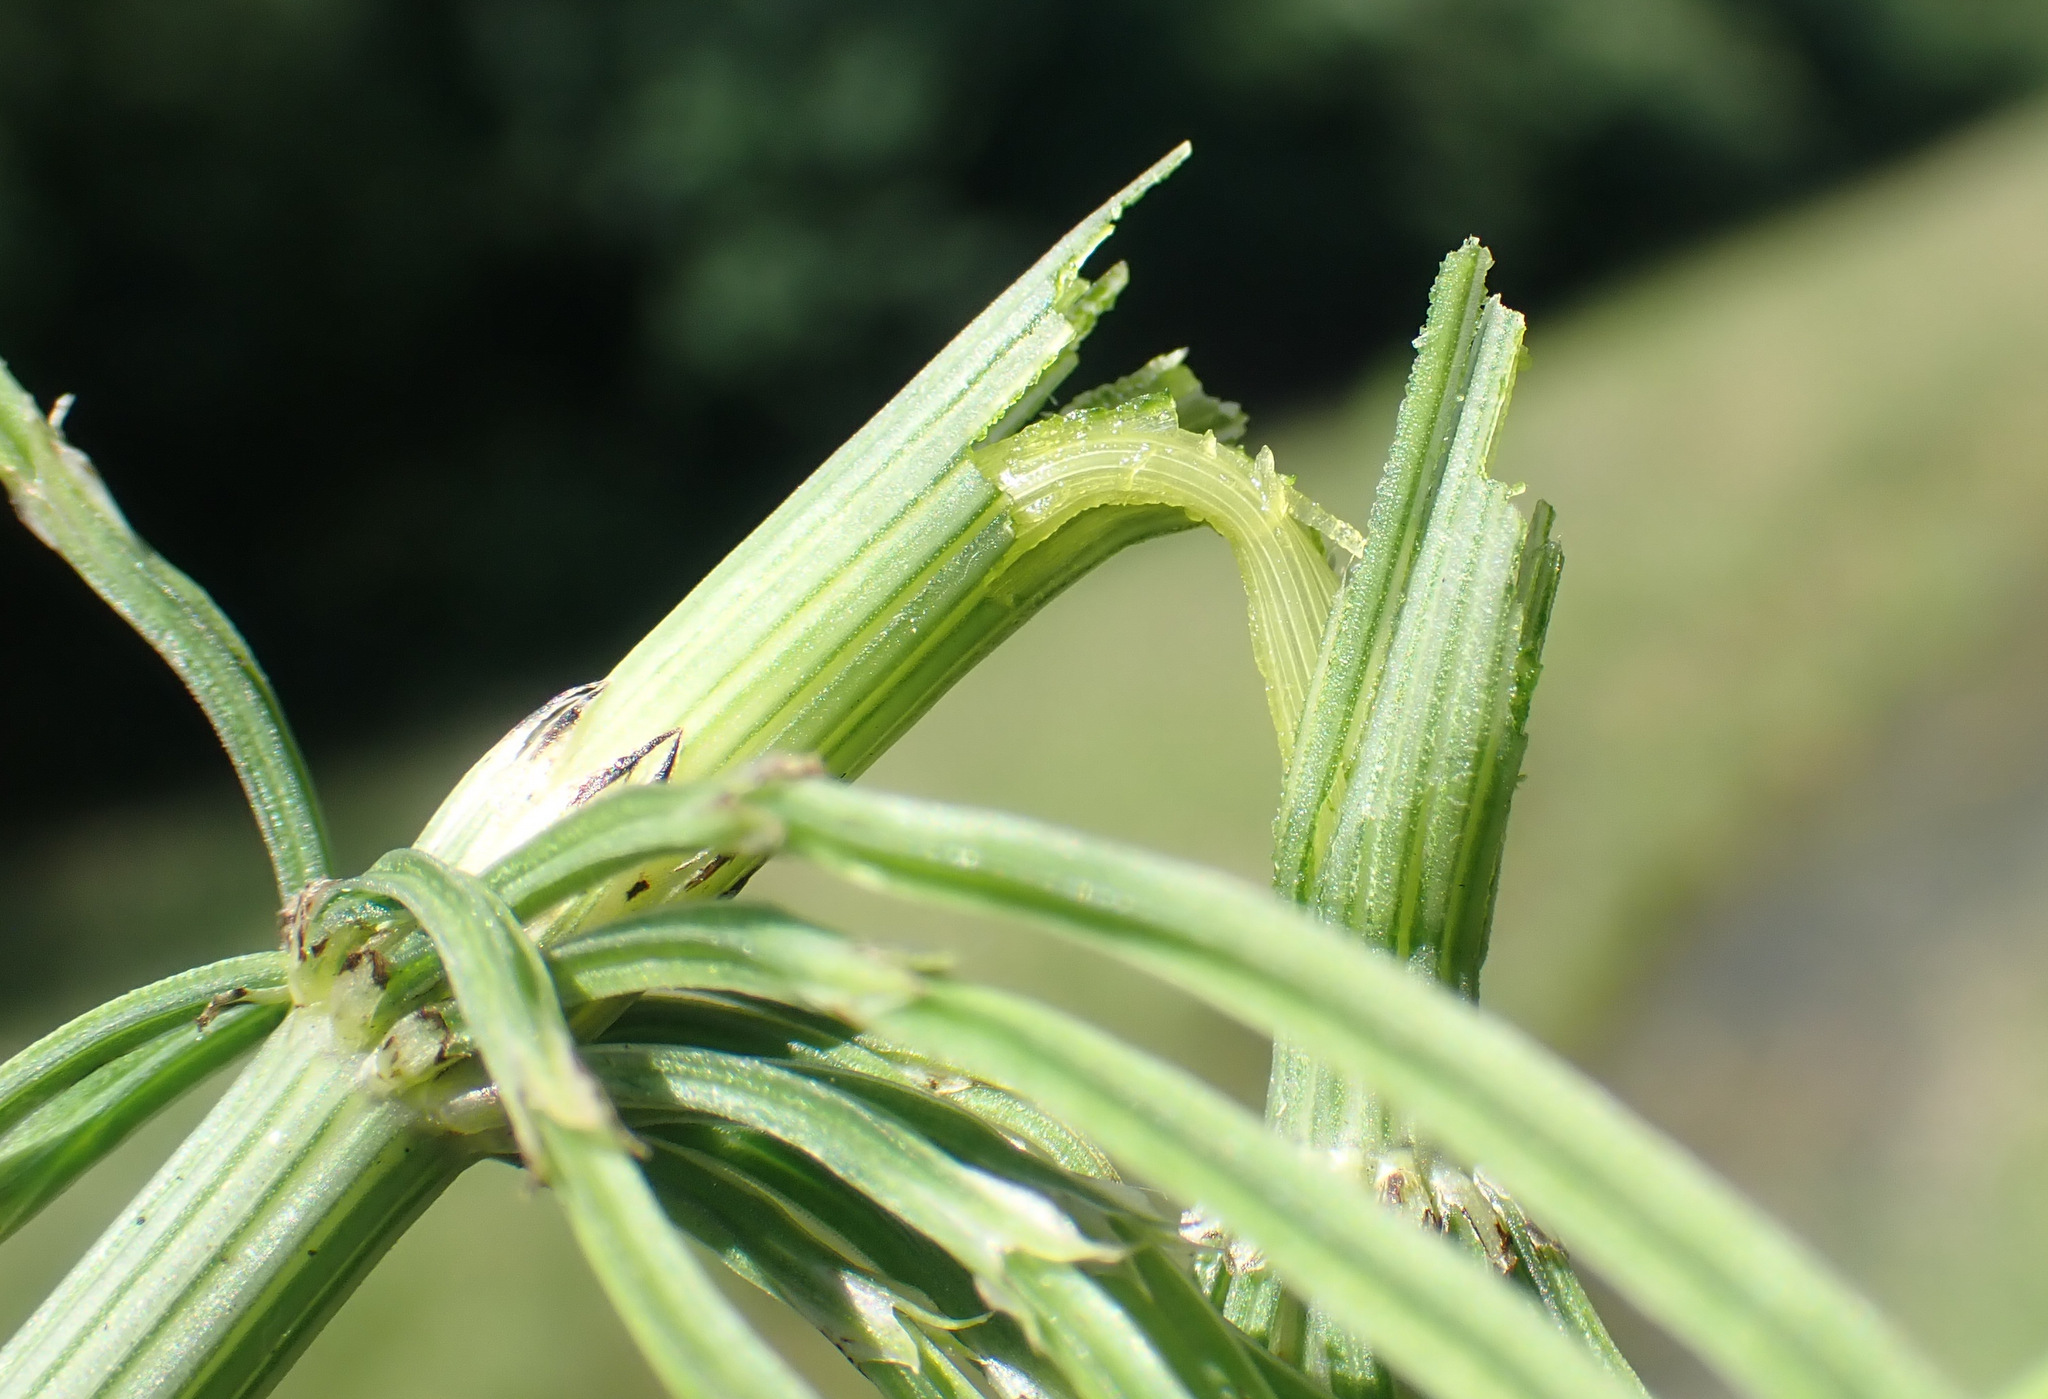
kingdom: Plantae
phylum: Tracheophyta
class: Polypodiopsida
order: Equisetales
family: Equisetaceae
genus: Equisetum
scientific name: Equisetum arvense
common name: Field horsetail
